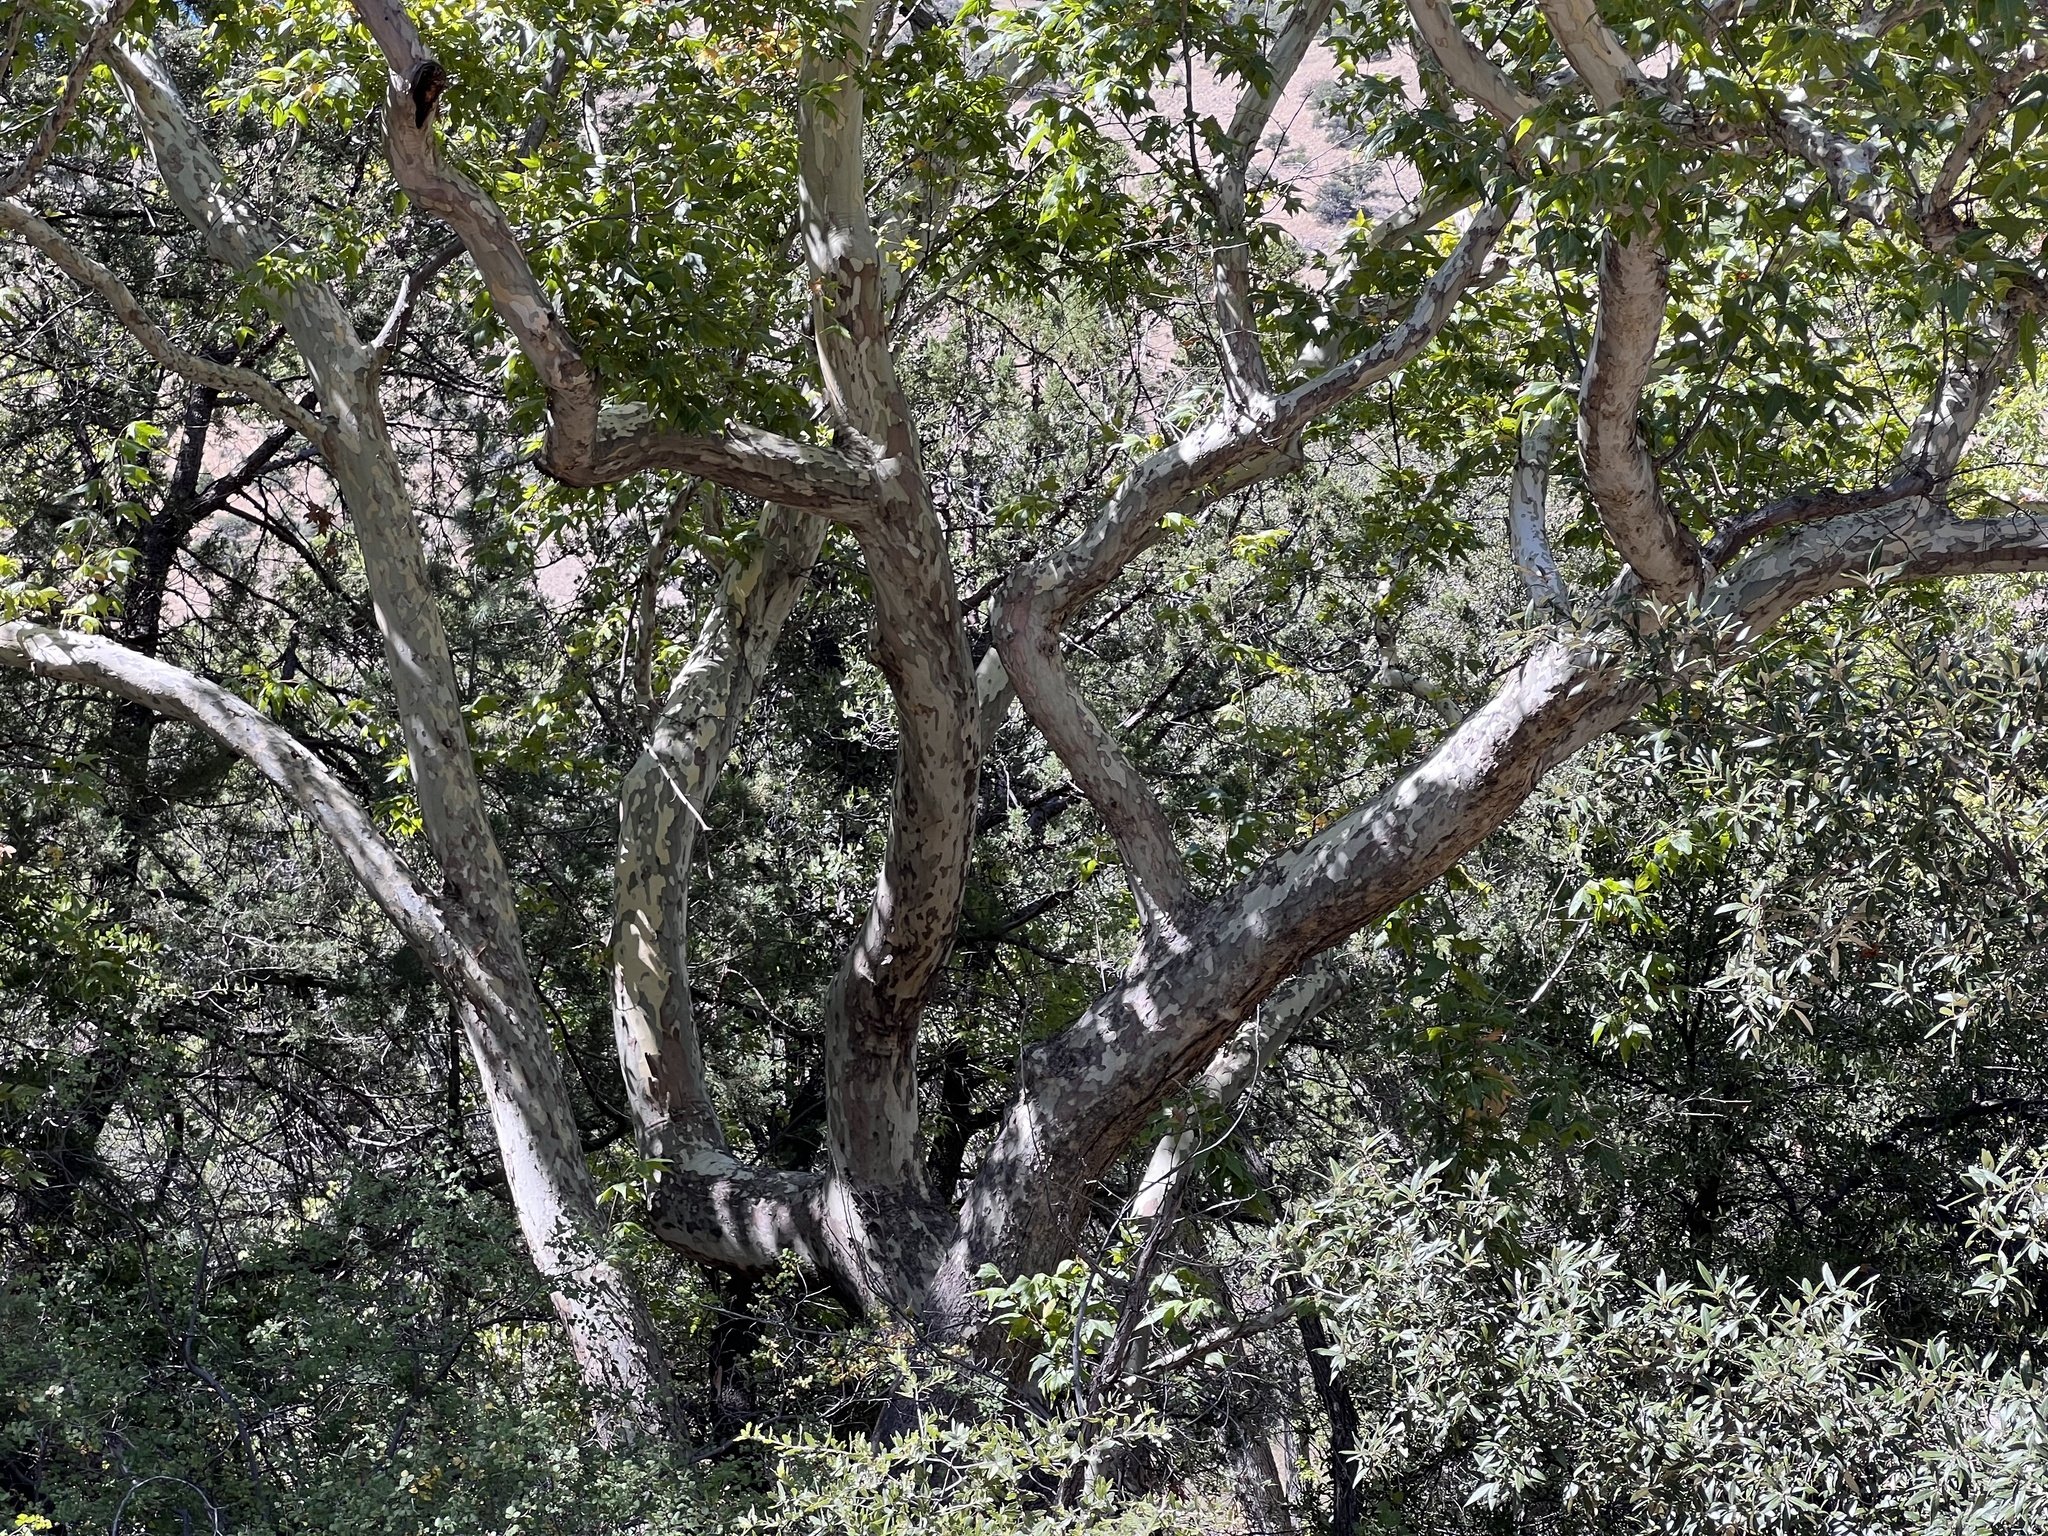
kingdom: Plantae
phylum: Tracheophyta
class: Magnoliopsida
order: Proteales
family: Platanaceae
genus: Platanus
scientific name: Platanus wrightii
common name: Arizona sycamore
